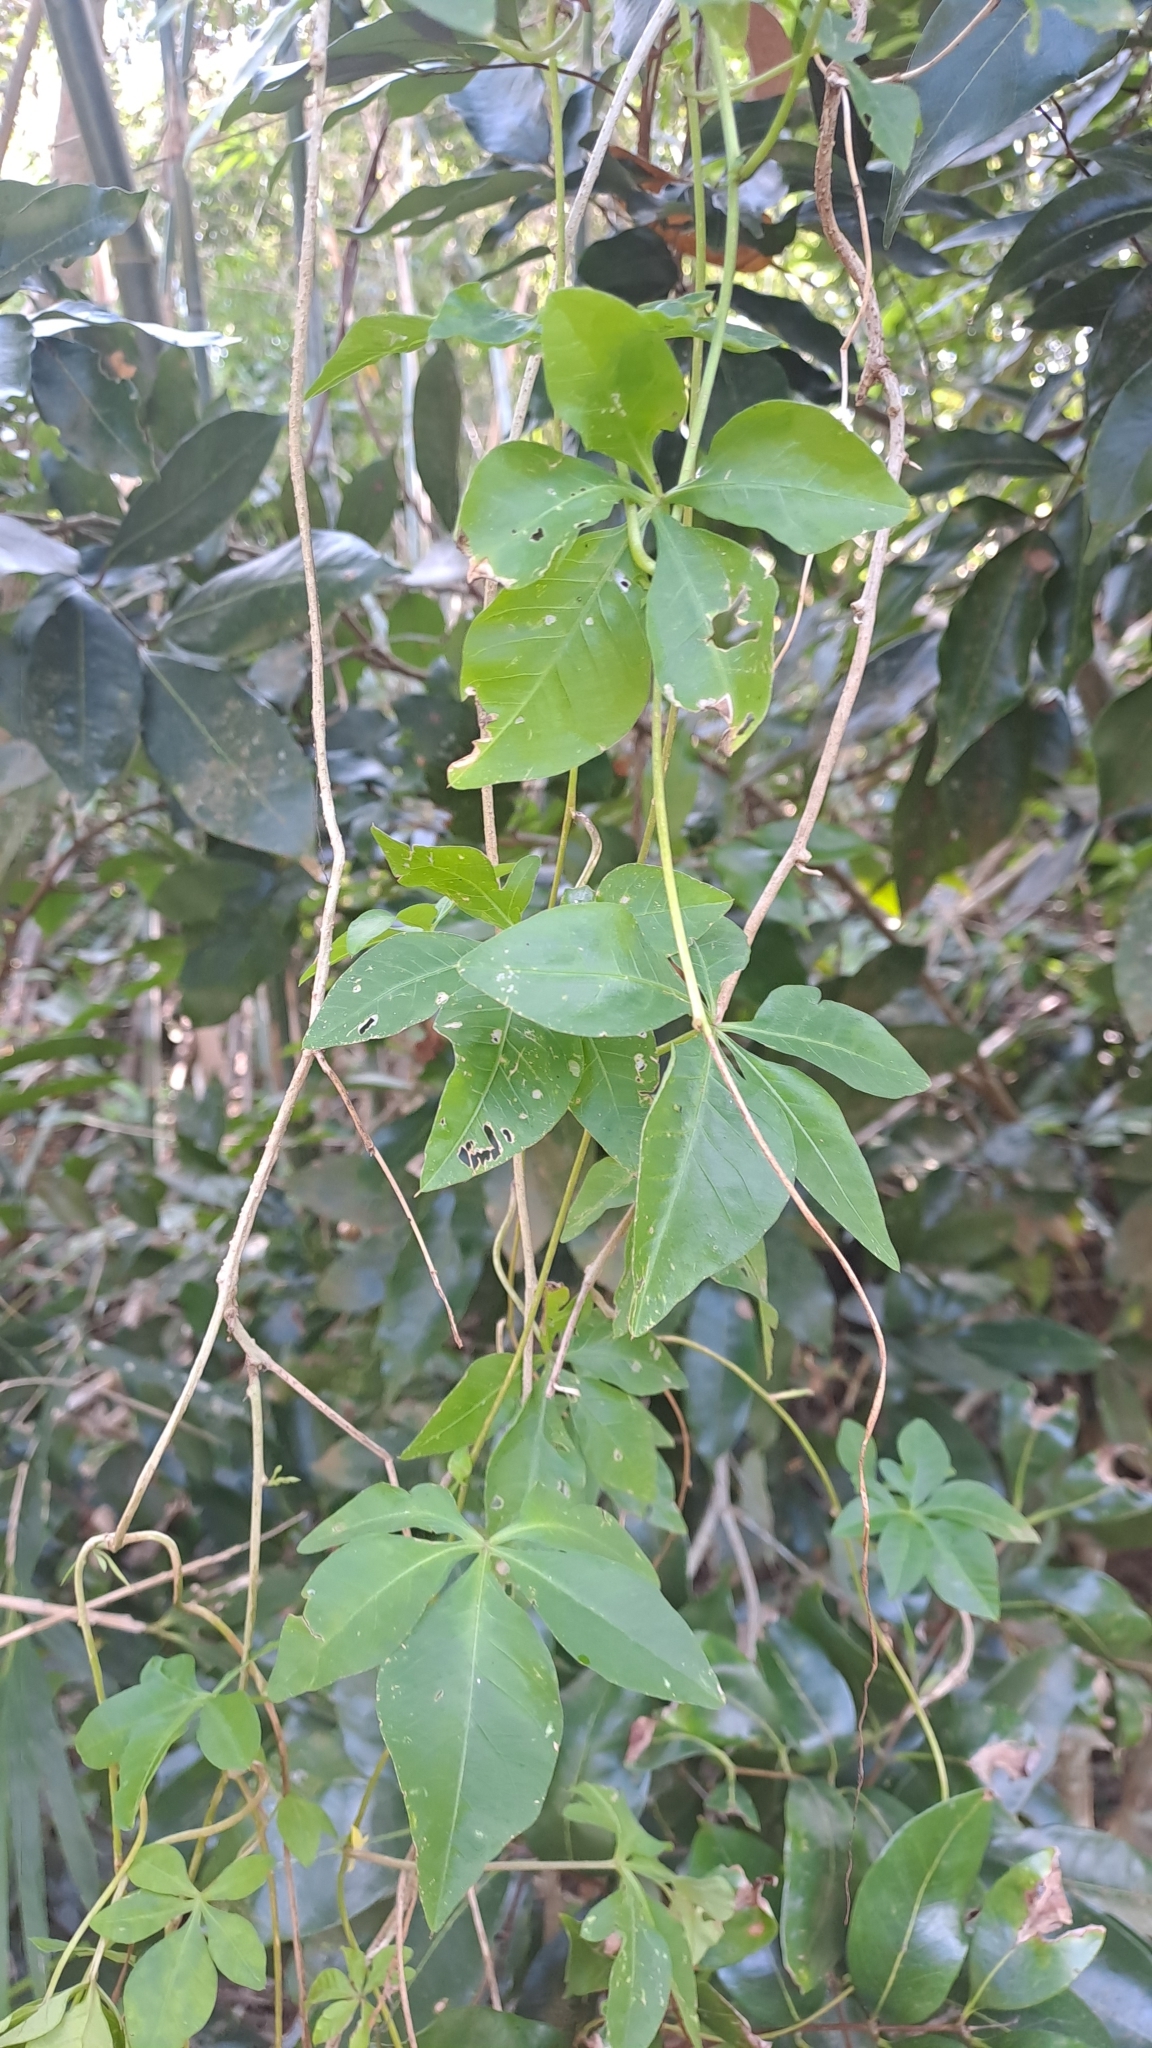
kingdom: Plantae
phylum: Tracheophyta
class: Magnoliopsida
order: Solanales
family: Convolvulaceae
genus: Ipomoea
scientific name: Ipomoea cairica
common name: Mile a minute vine
